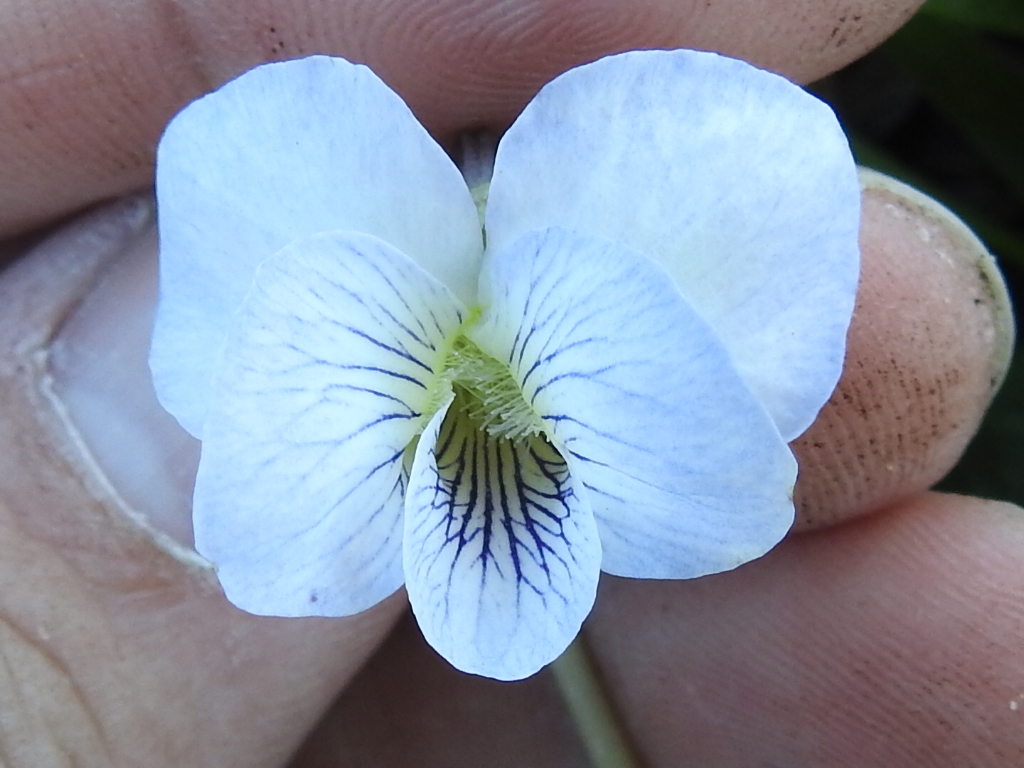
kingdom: Plantae
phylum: Tracheophyta
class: Magnoliopsida
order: Malpighiales
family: Violaceae
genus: Viola
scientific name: Viola sororia
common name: Dooryard violet
